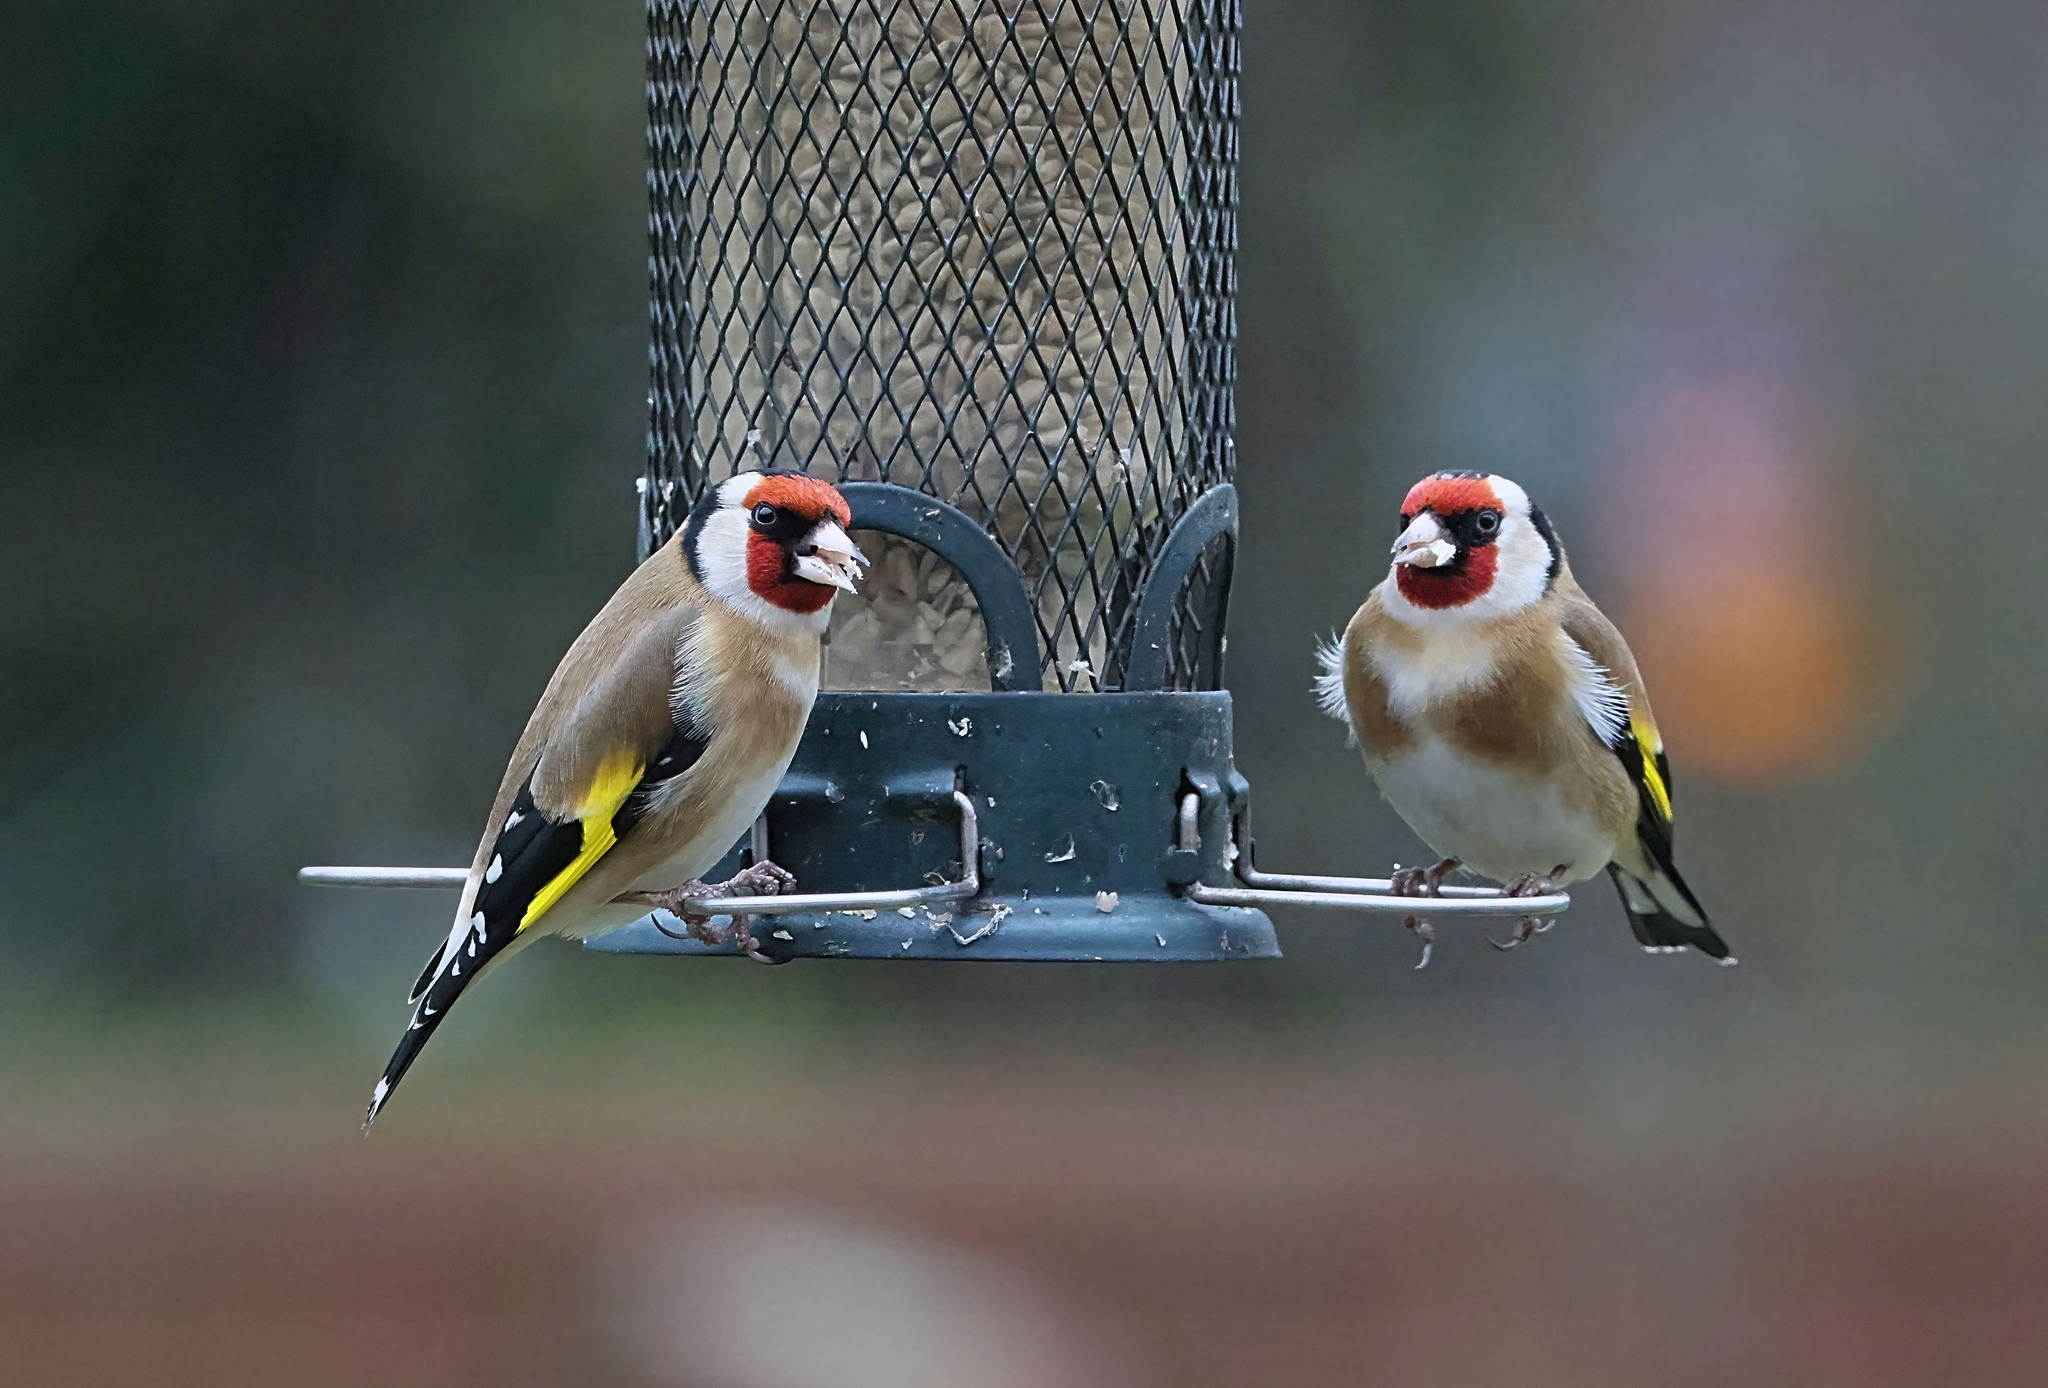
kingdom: Animalia
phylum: Chordata
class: Aves
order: Passeriformes
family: Fringillidae
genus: Carduelis
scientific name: Carduelis carduelis
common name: European goldfinch
